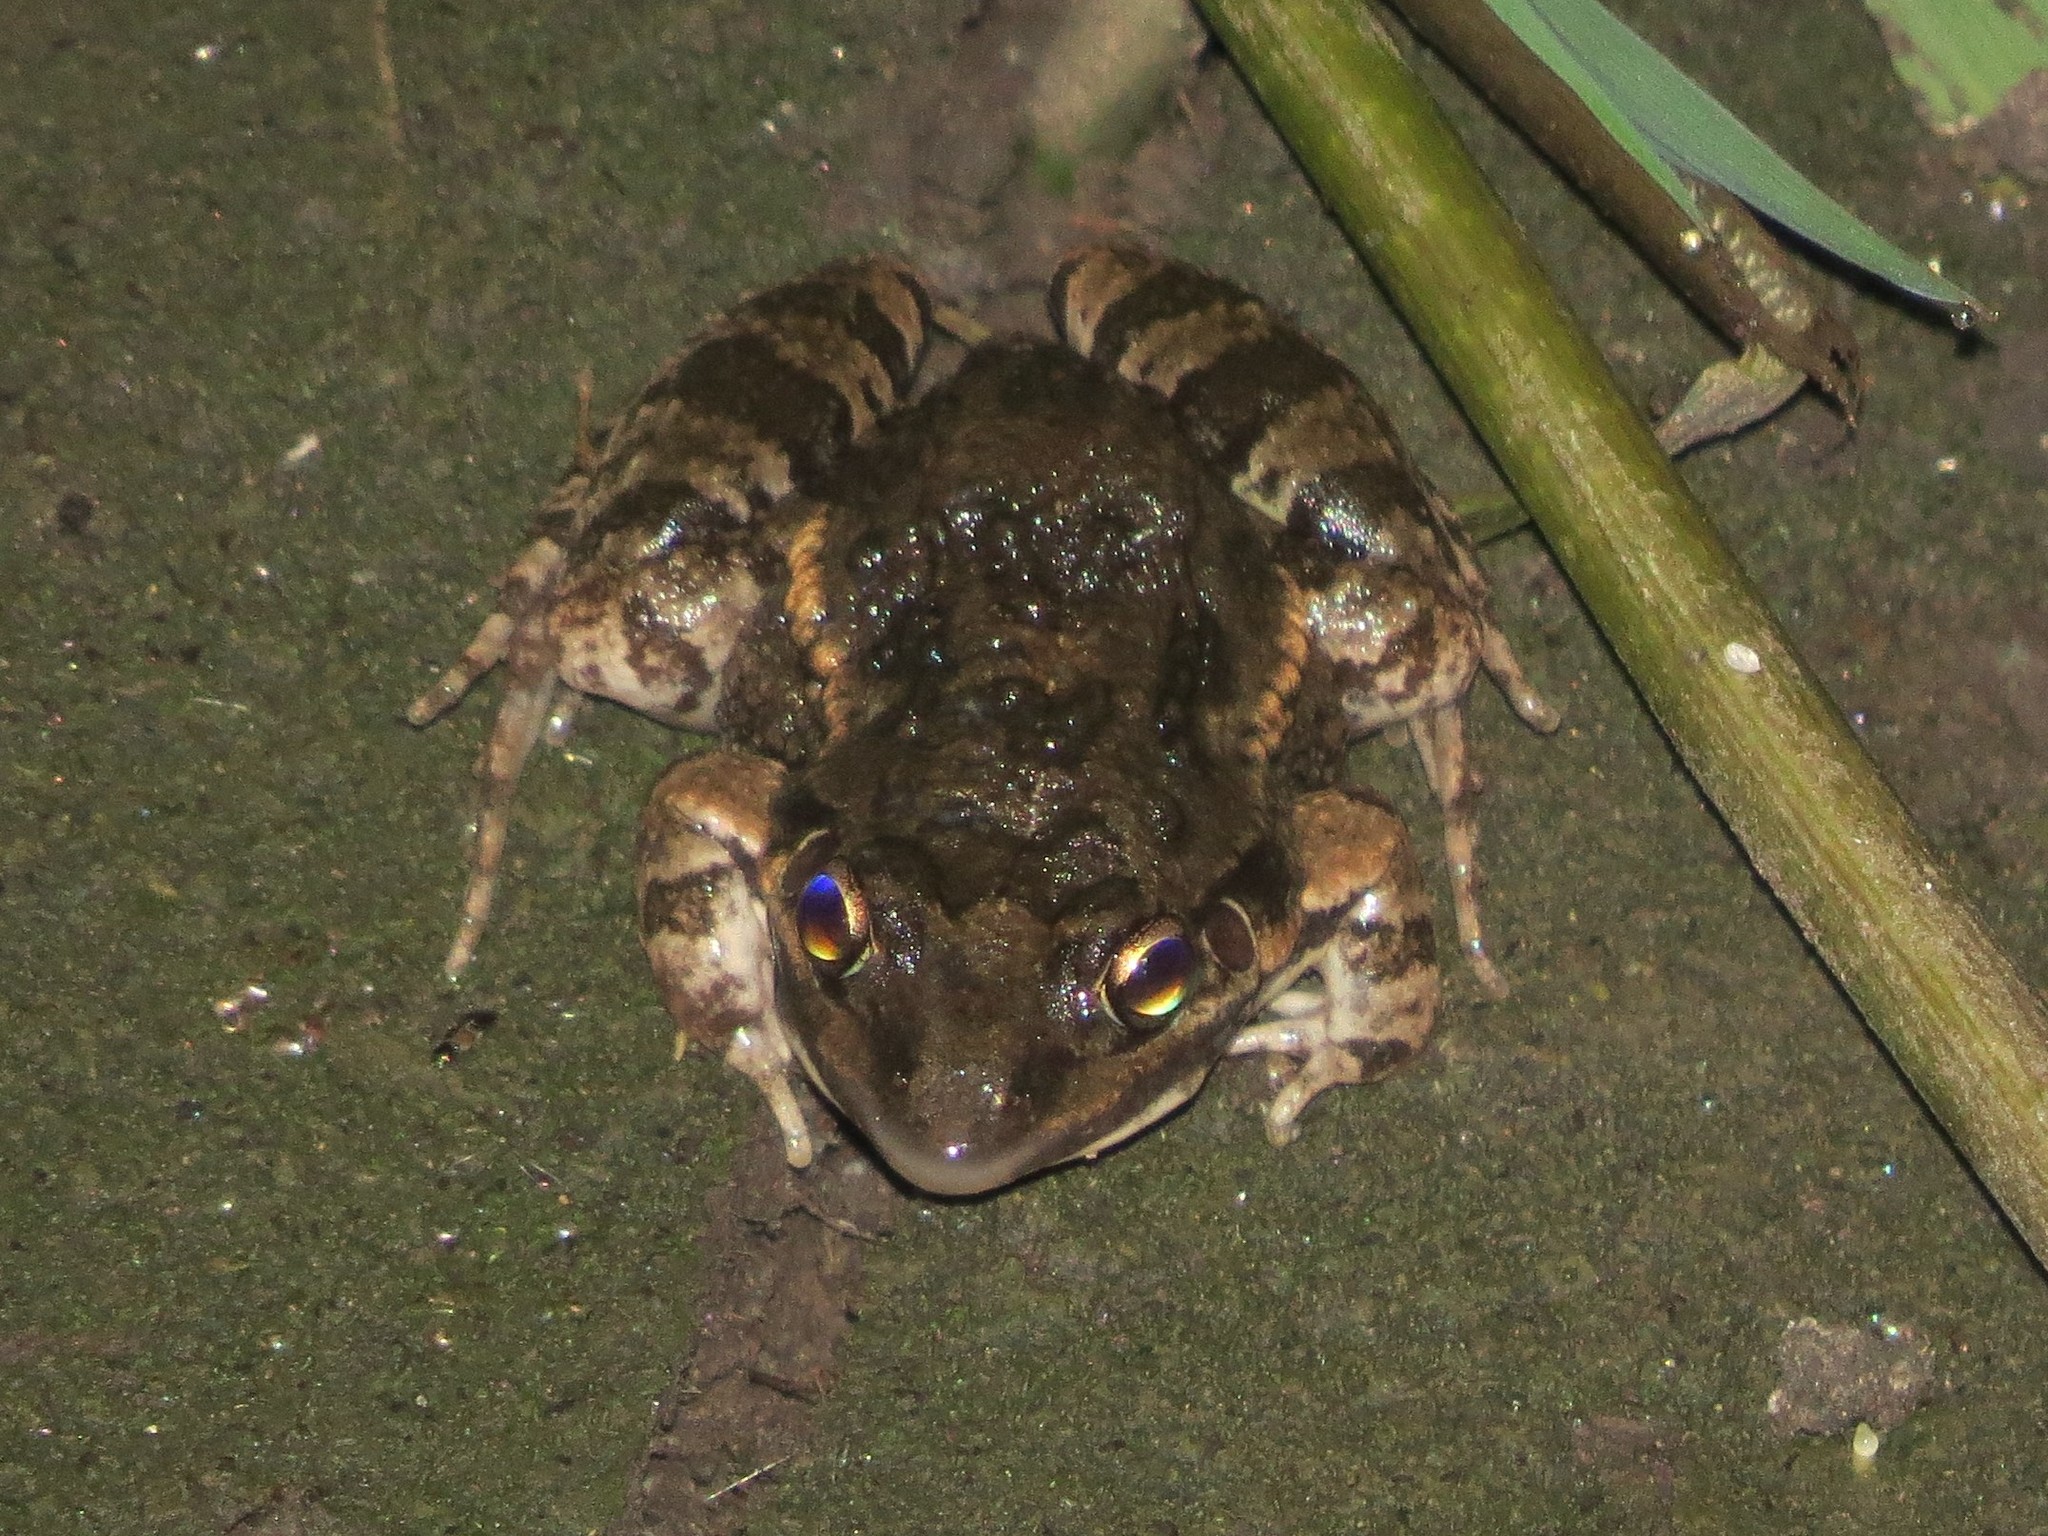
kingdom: Animalia
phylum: Chordata
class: Amphibia
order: Anura
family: Leptodactylidae
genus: Leptodactylus
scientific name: Leptodactylus latinasus
